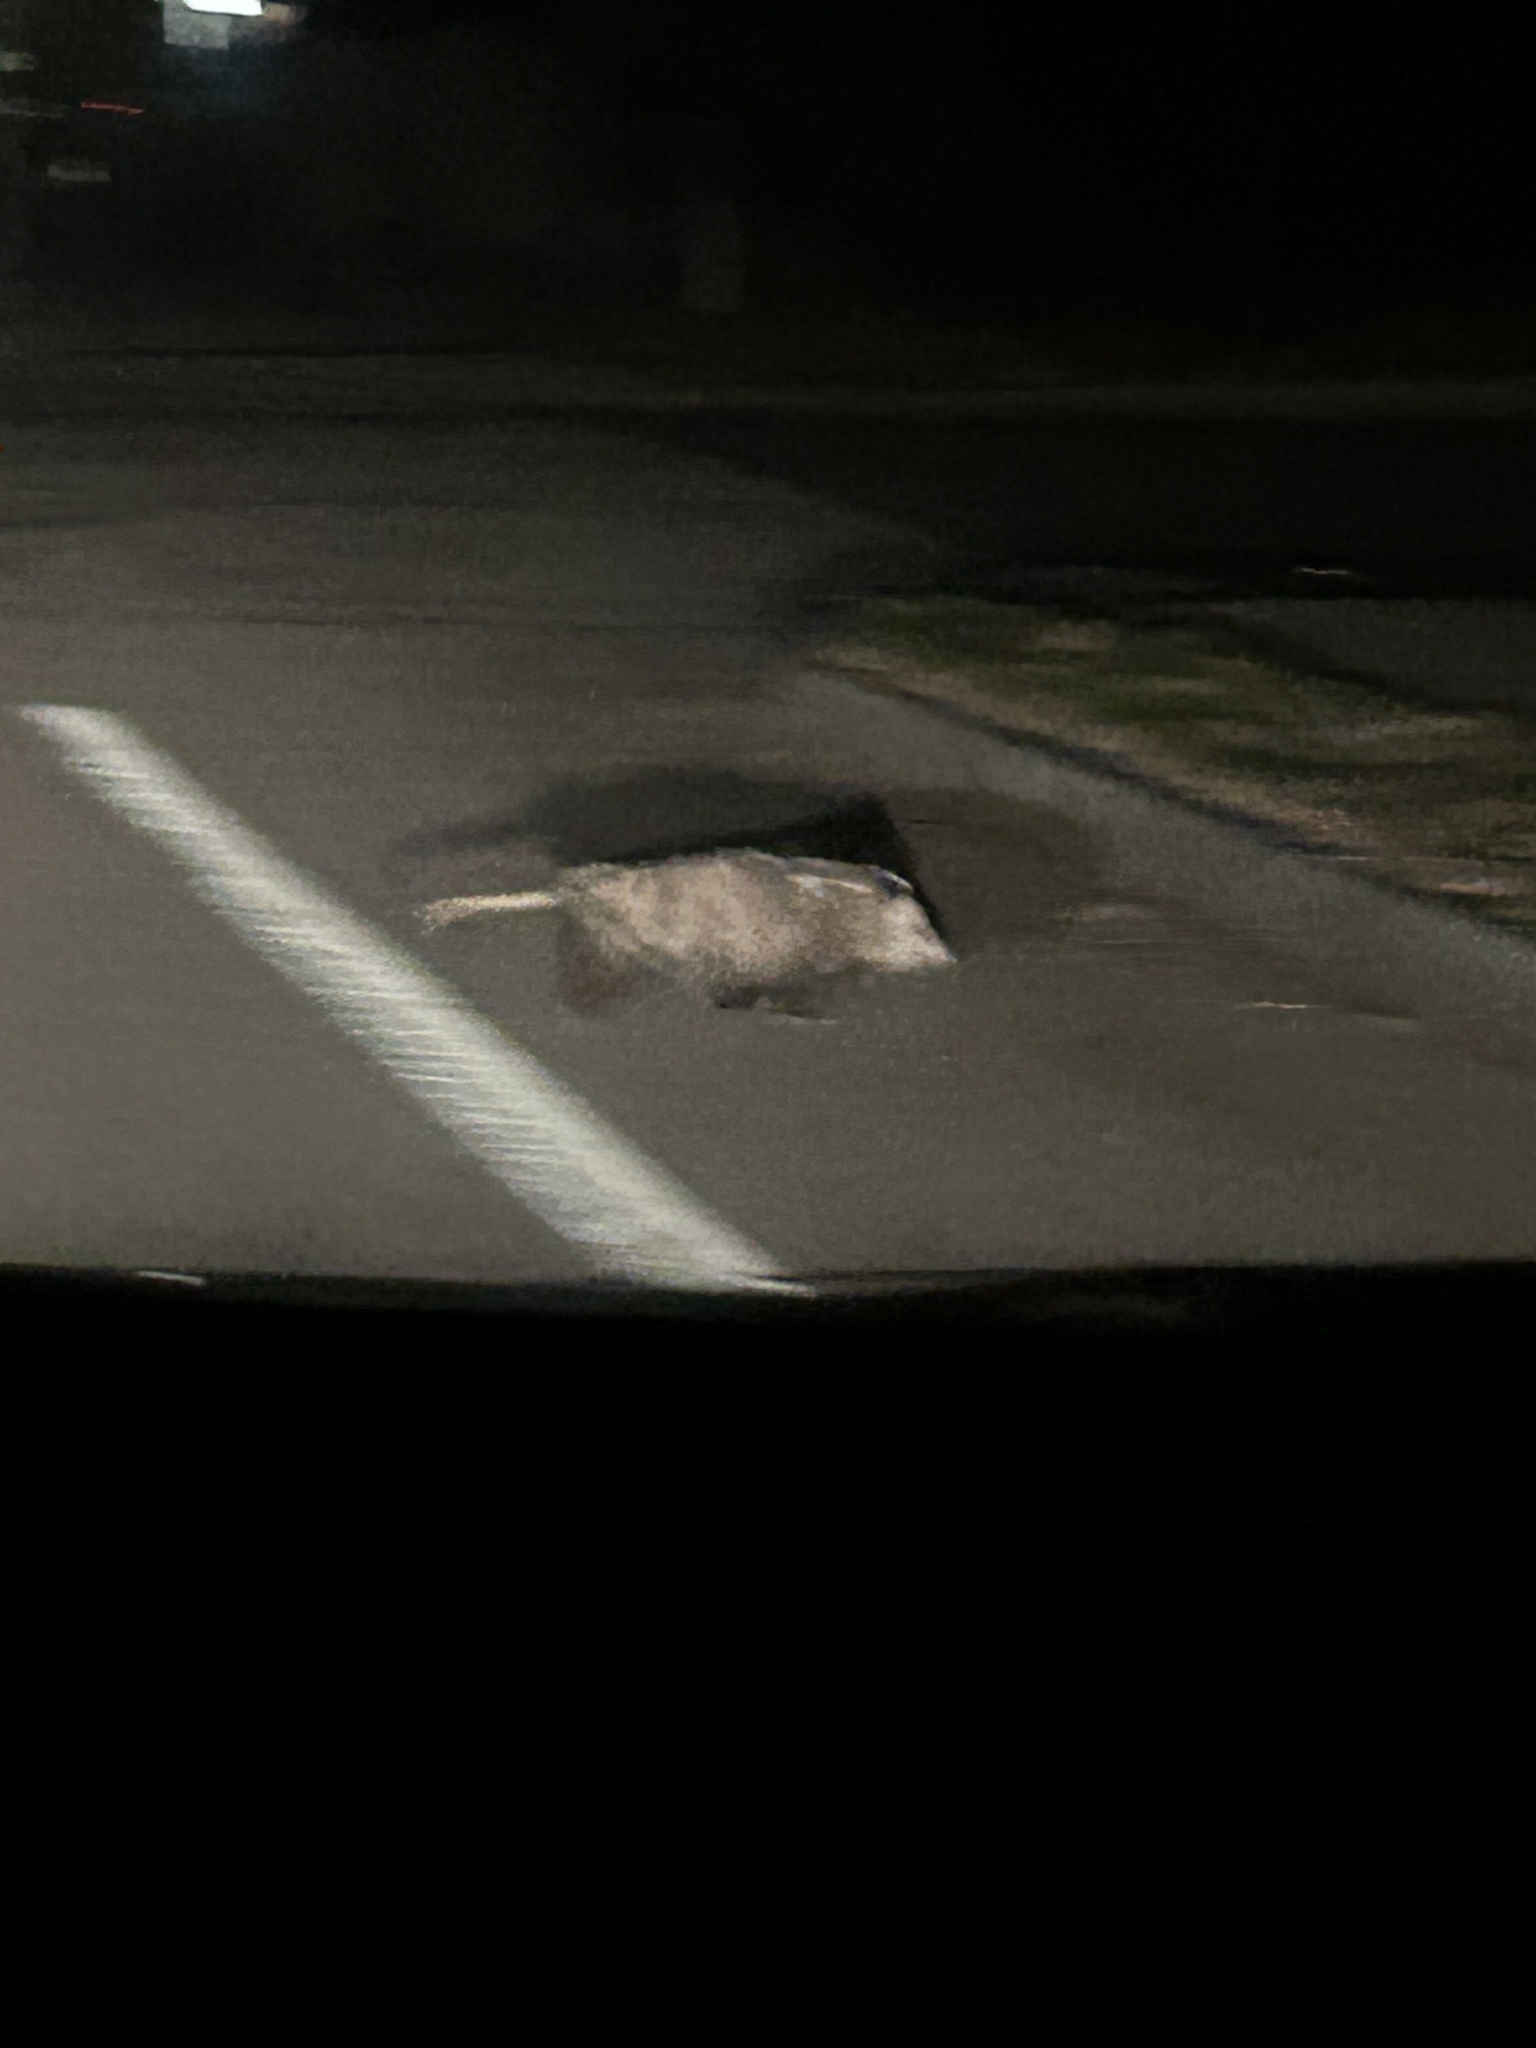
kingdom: Animalia
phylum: Chordata
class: Mammalia
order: Didelphimorphia
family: Didelphidae
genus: Didelphis
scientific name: Didelphis virginiana
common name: Virginia opossum
